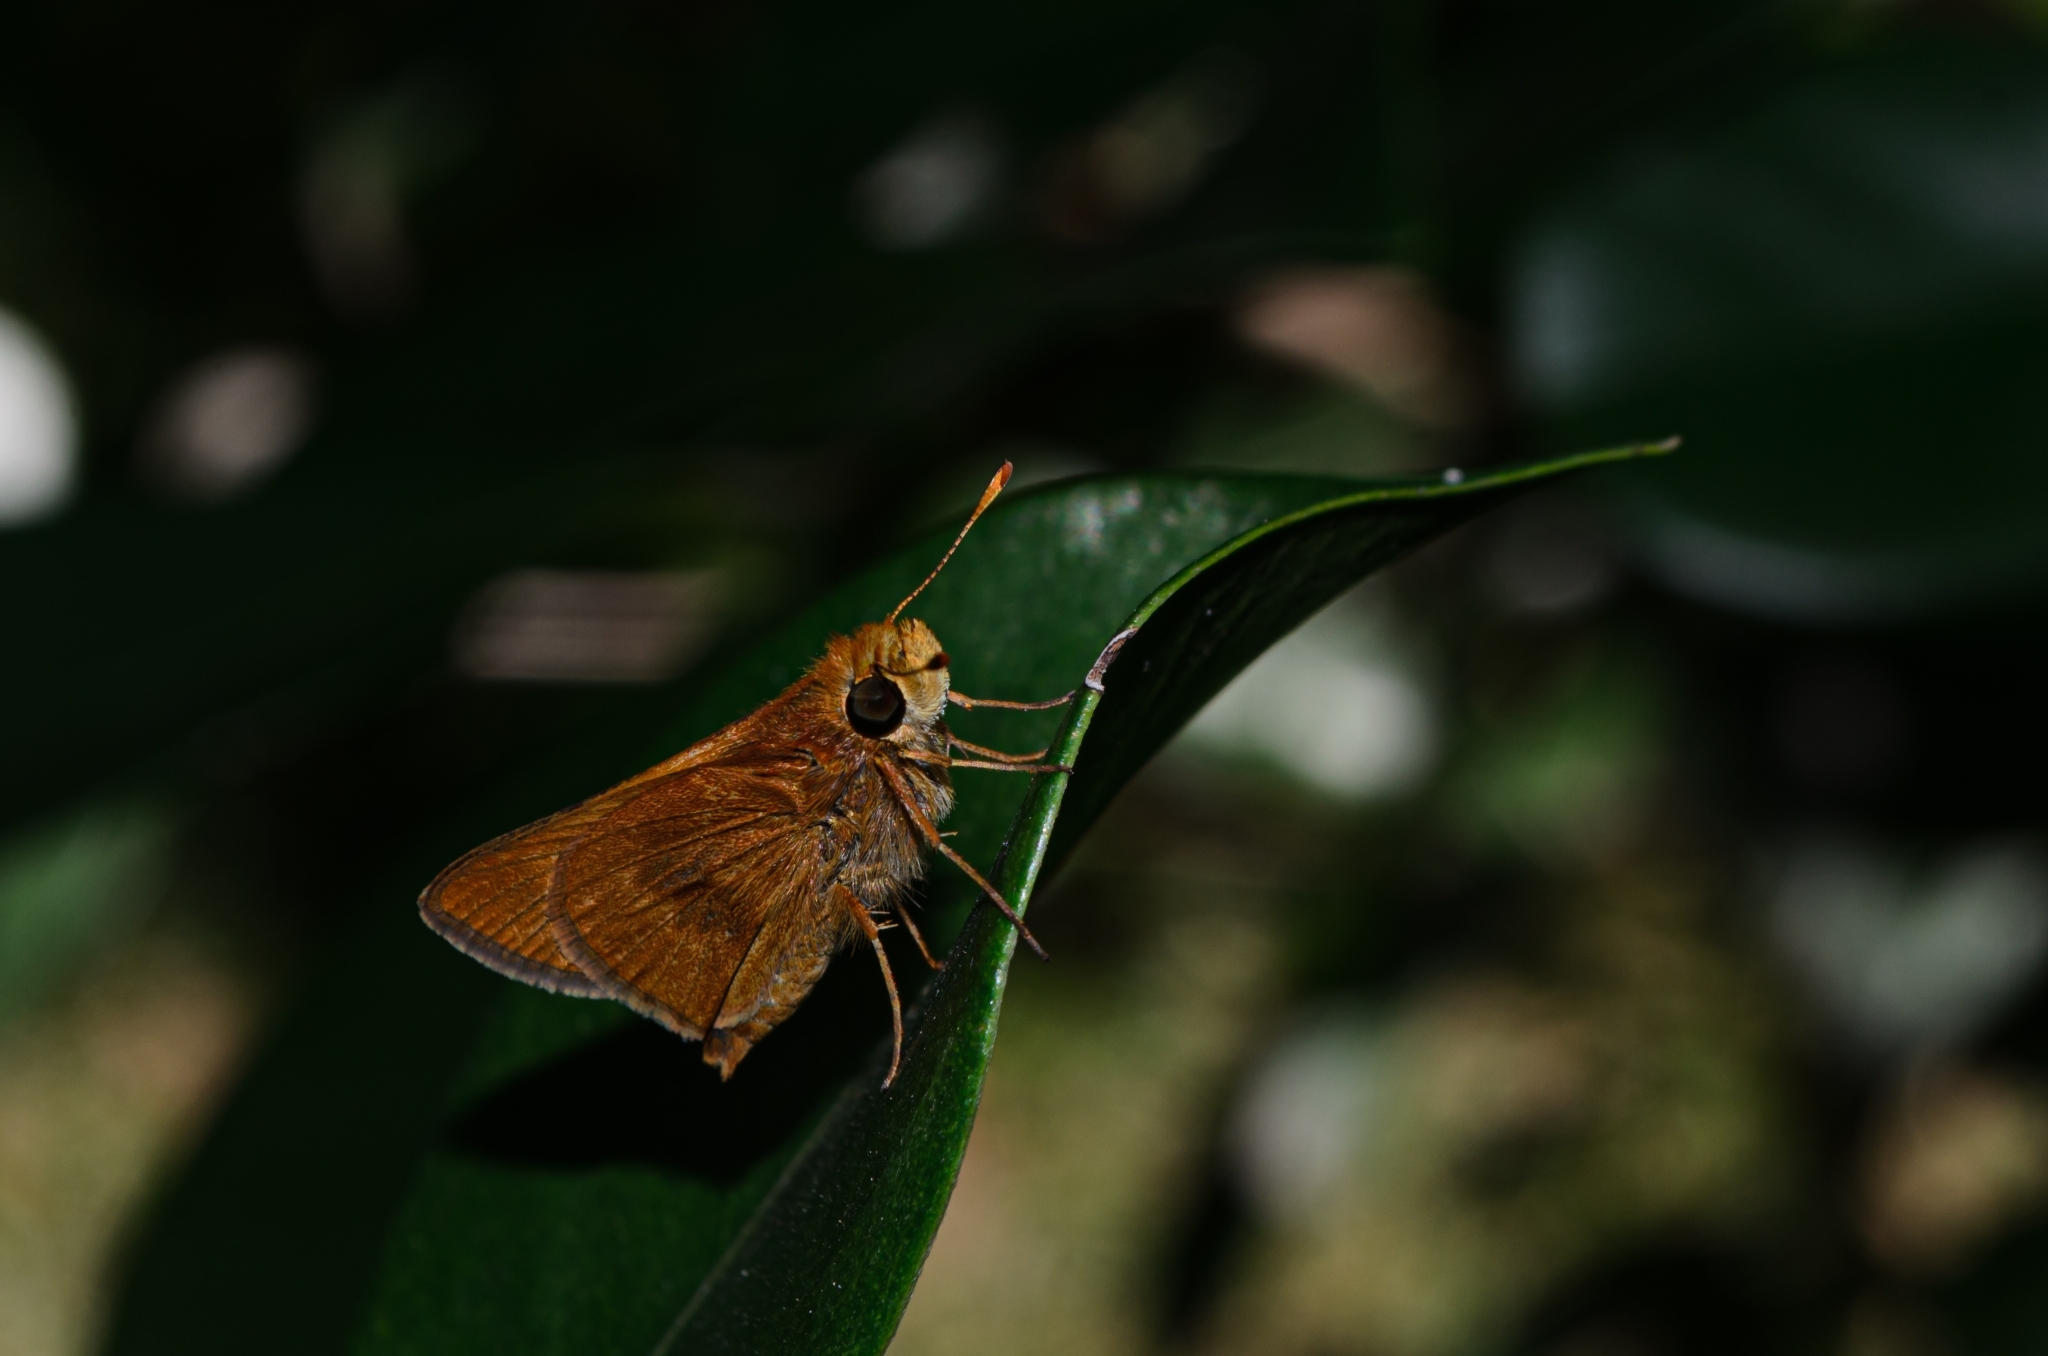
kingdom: Animalia
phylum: Arthropoda
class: Insecta
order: Lepidoptera
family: Hesperiidae
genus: Conga
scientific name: Conga iheringii
